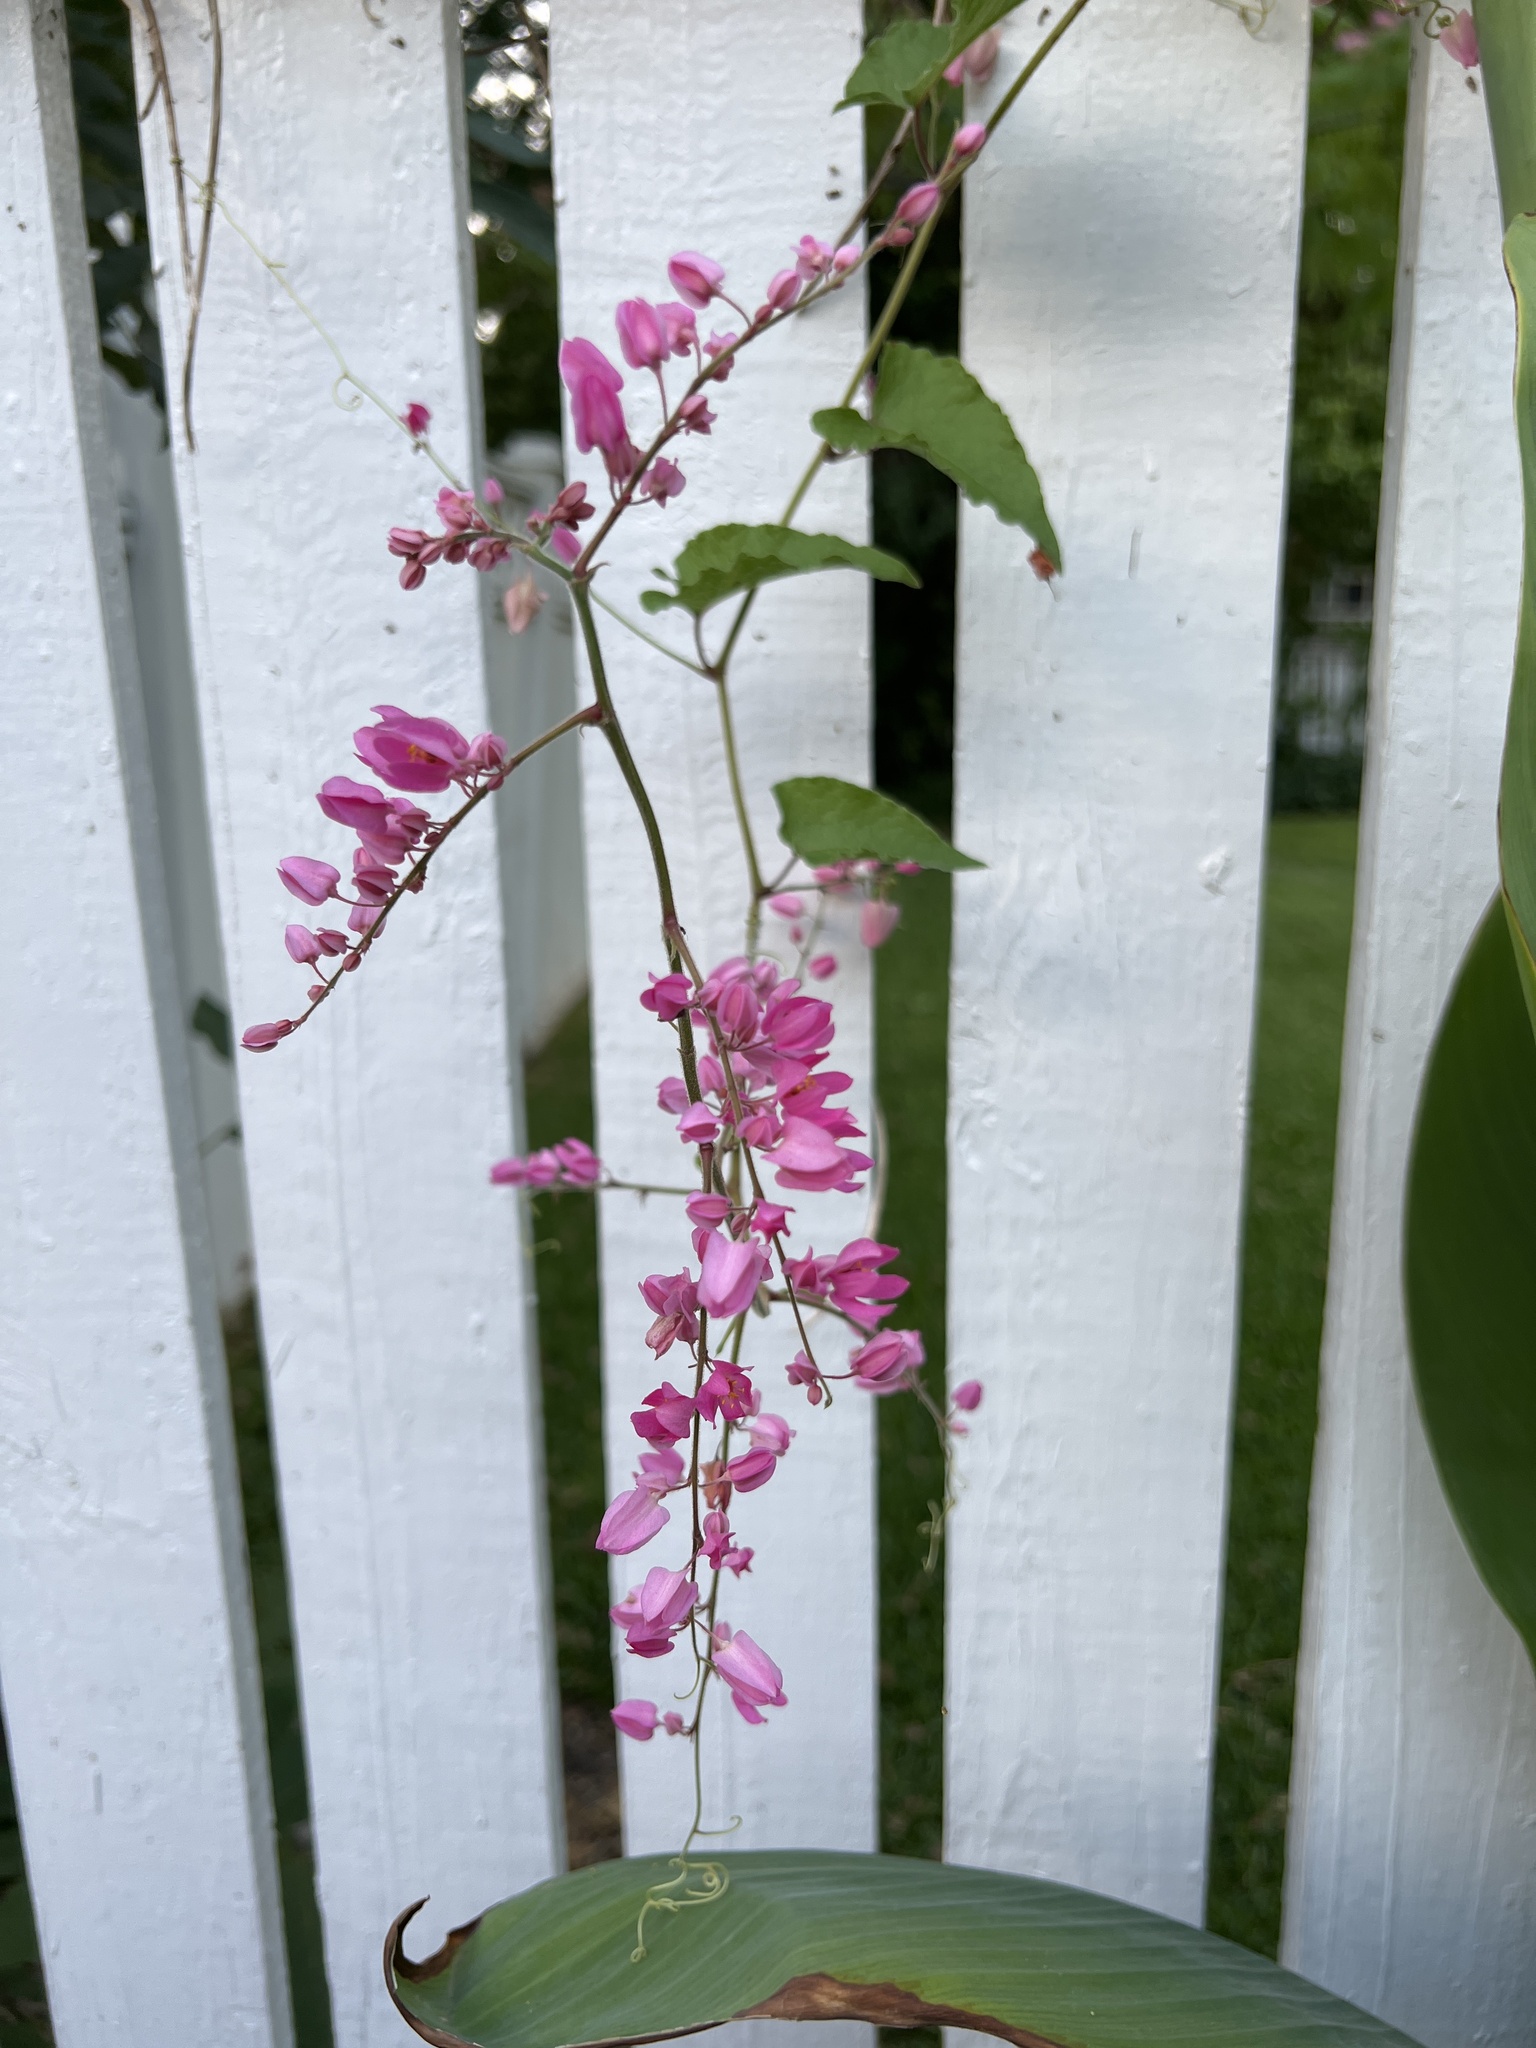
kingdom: Plantae
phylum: Tracheophyta
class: Magnoliopsida
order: Caryophyllales
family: Polygonaceae
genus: Antigonon
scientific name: Antigonon leptopus
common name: Coral vine
